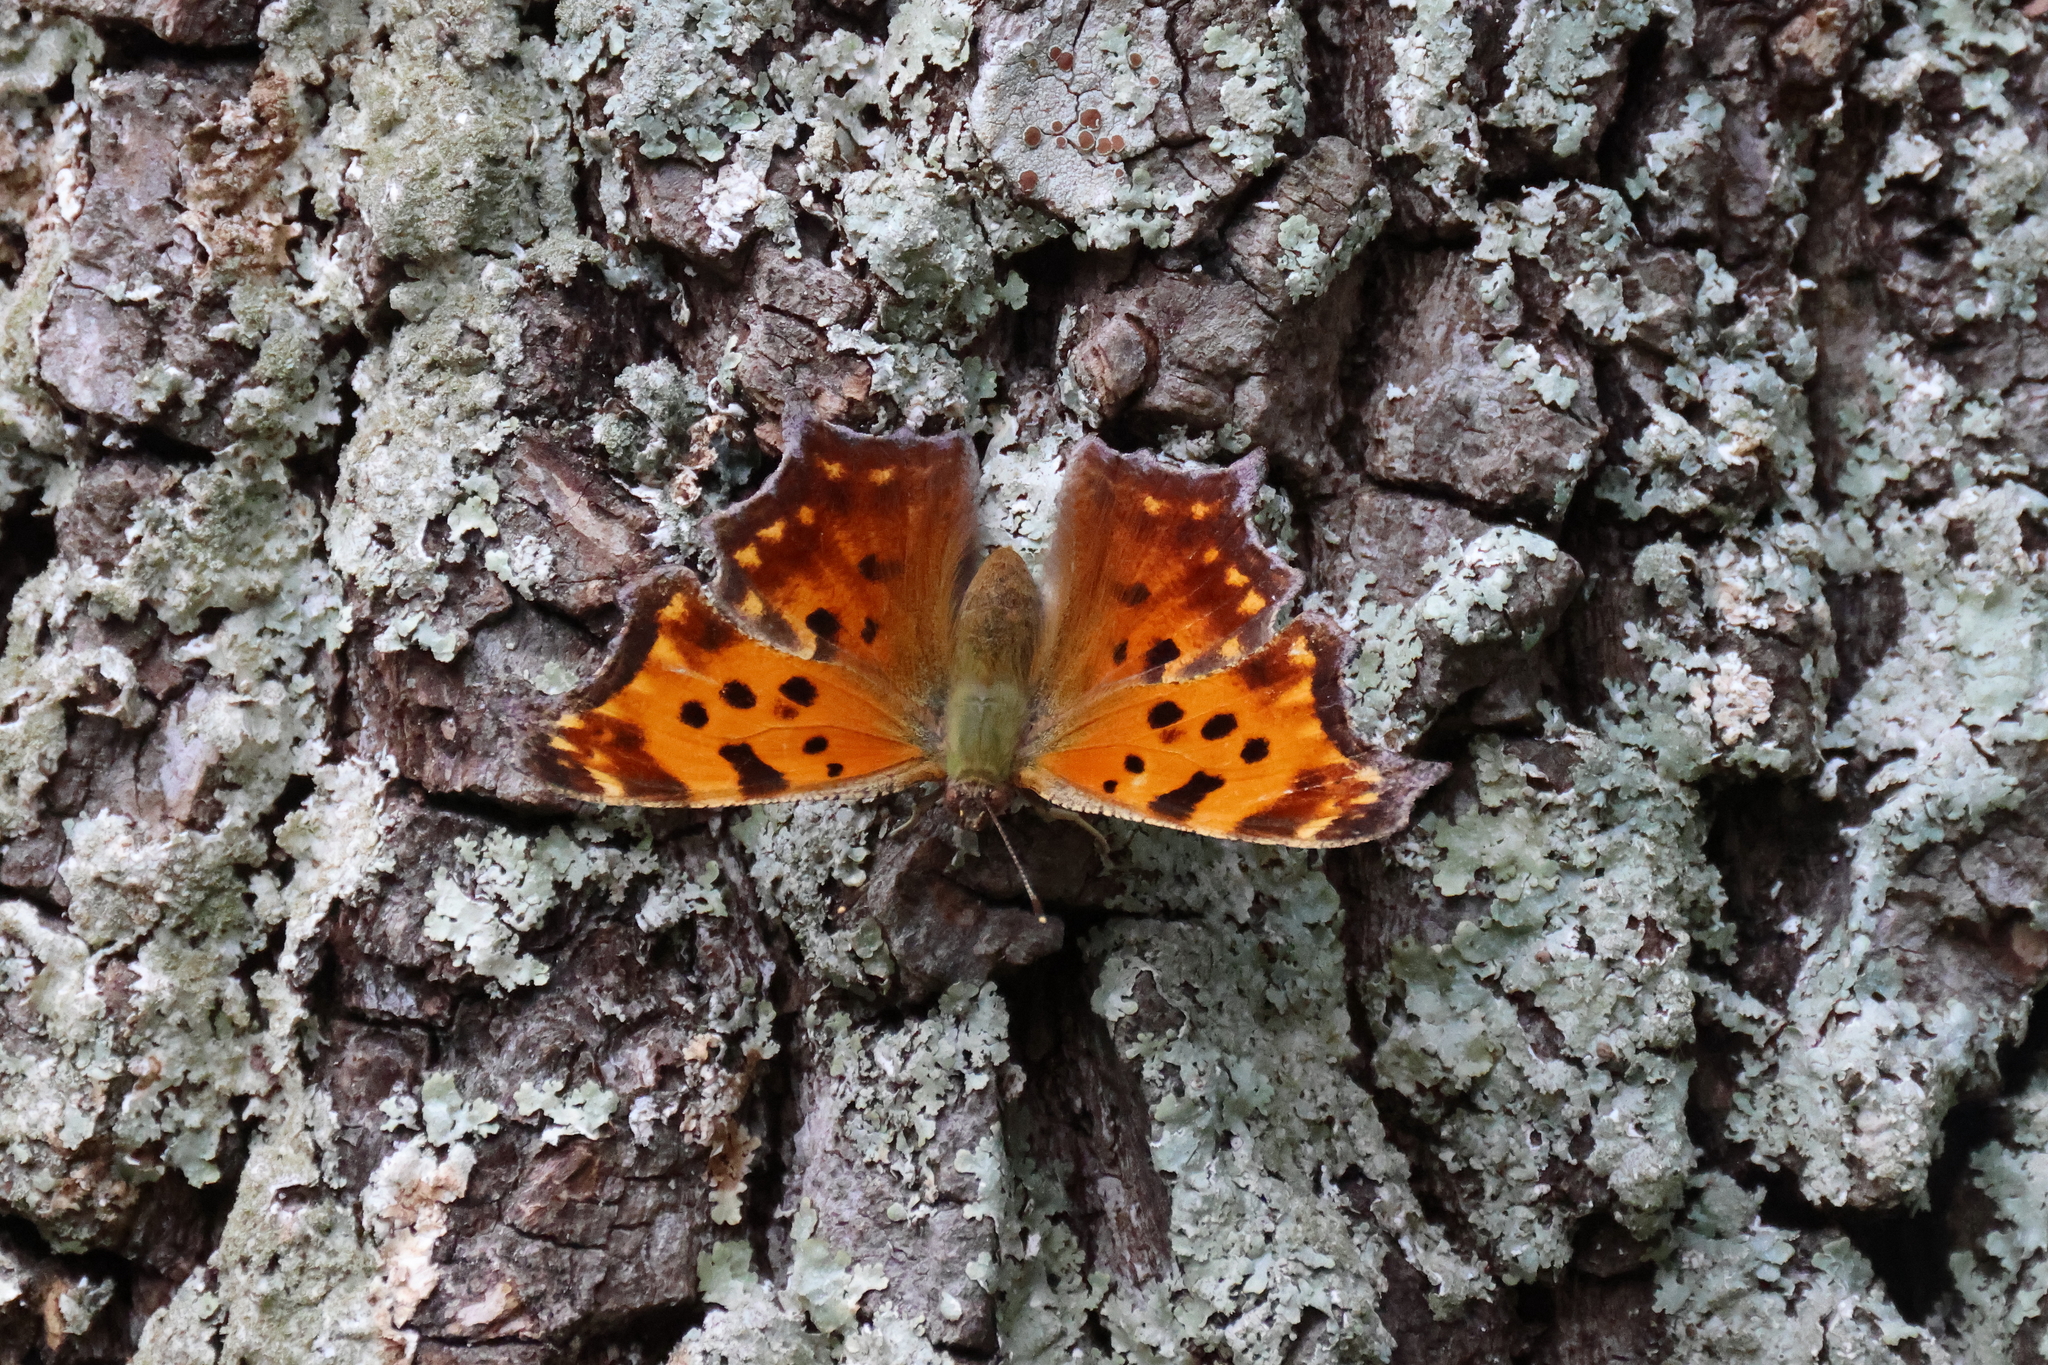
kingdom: Animalia
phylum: Arthropoda
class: Insecta
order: Lepidoptera
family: Nymphalidae
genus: Polygonia
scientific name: Polygonia comma
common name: Eastern comma
